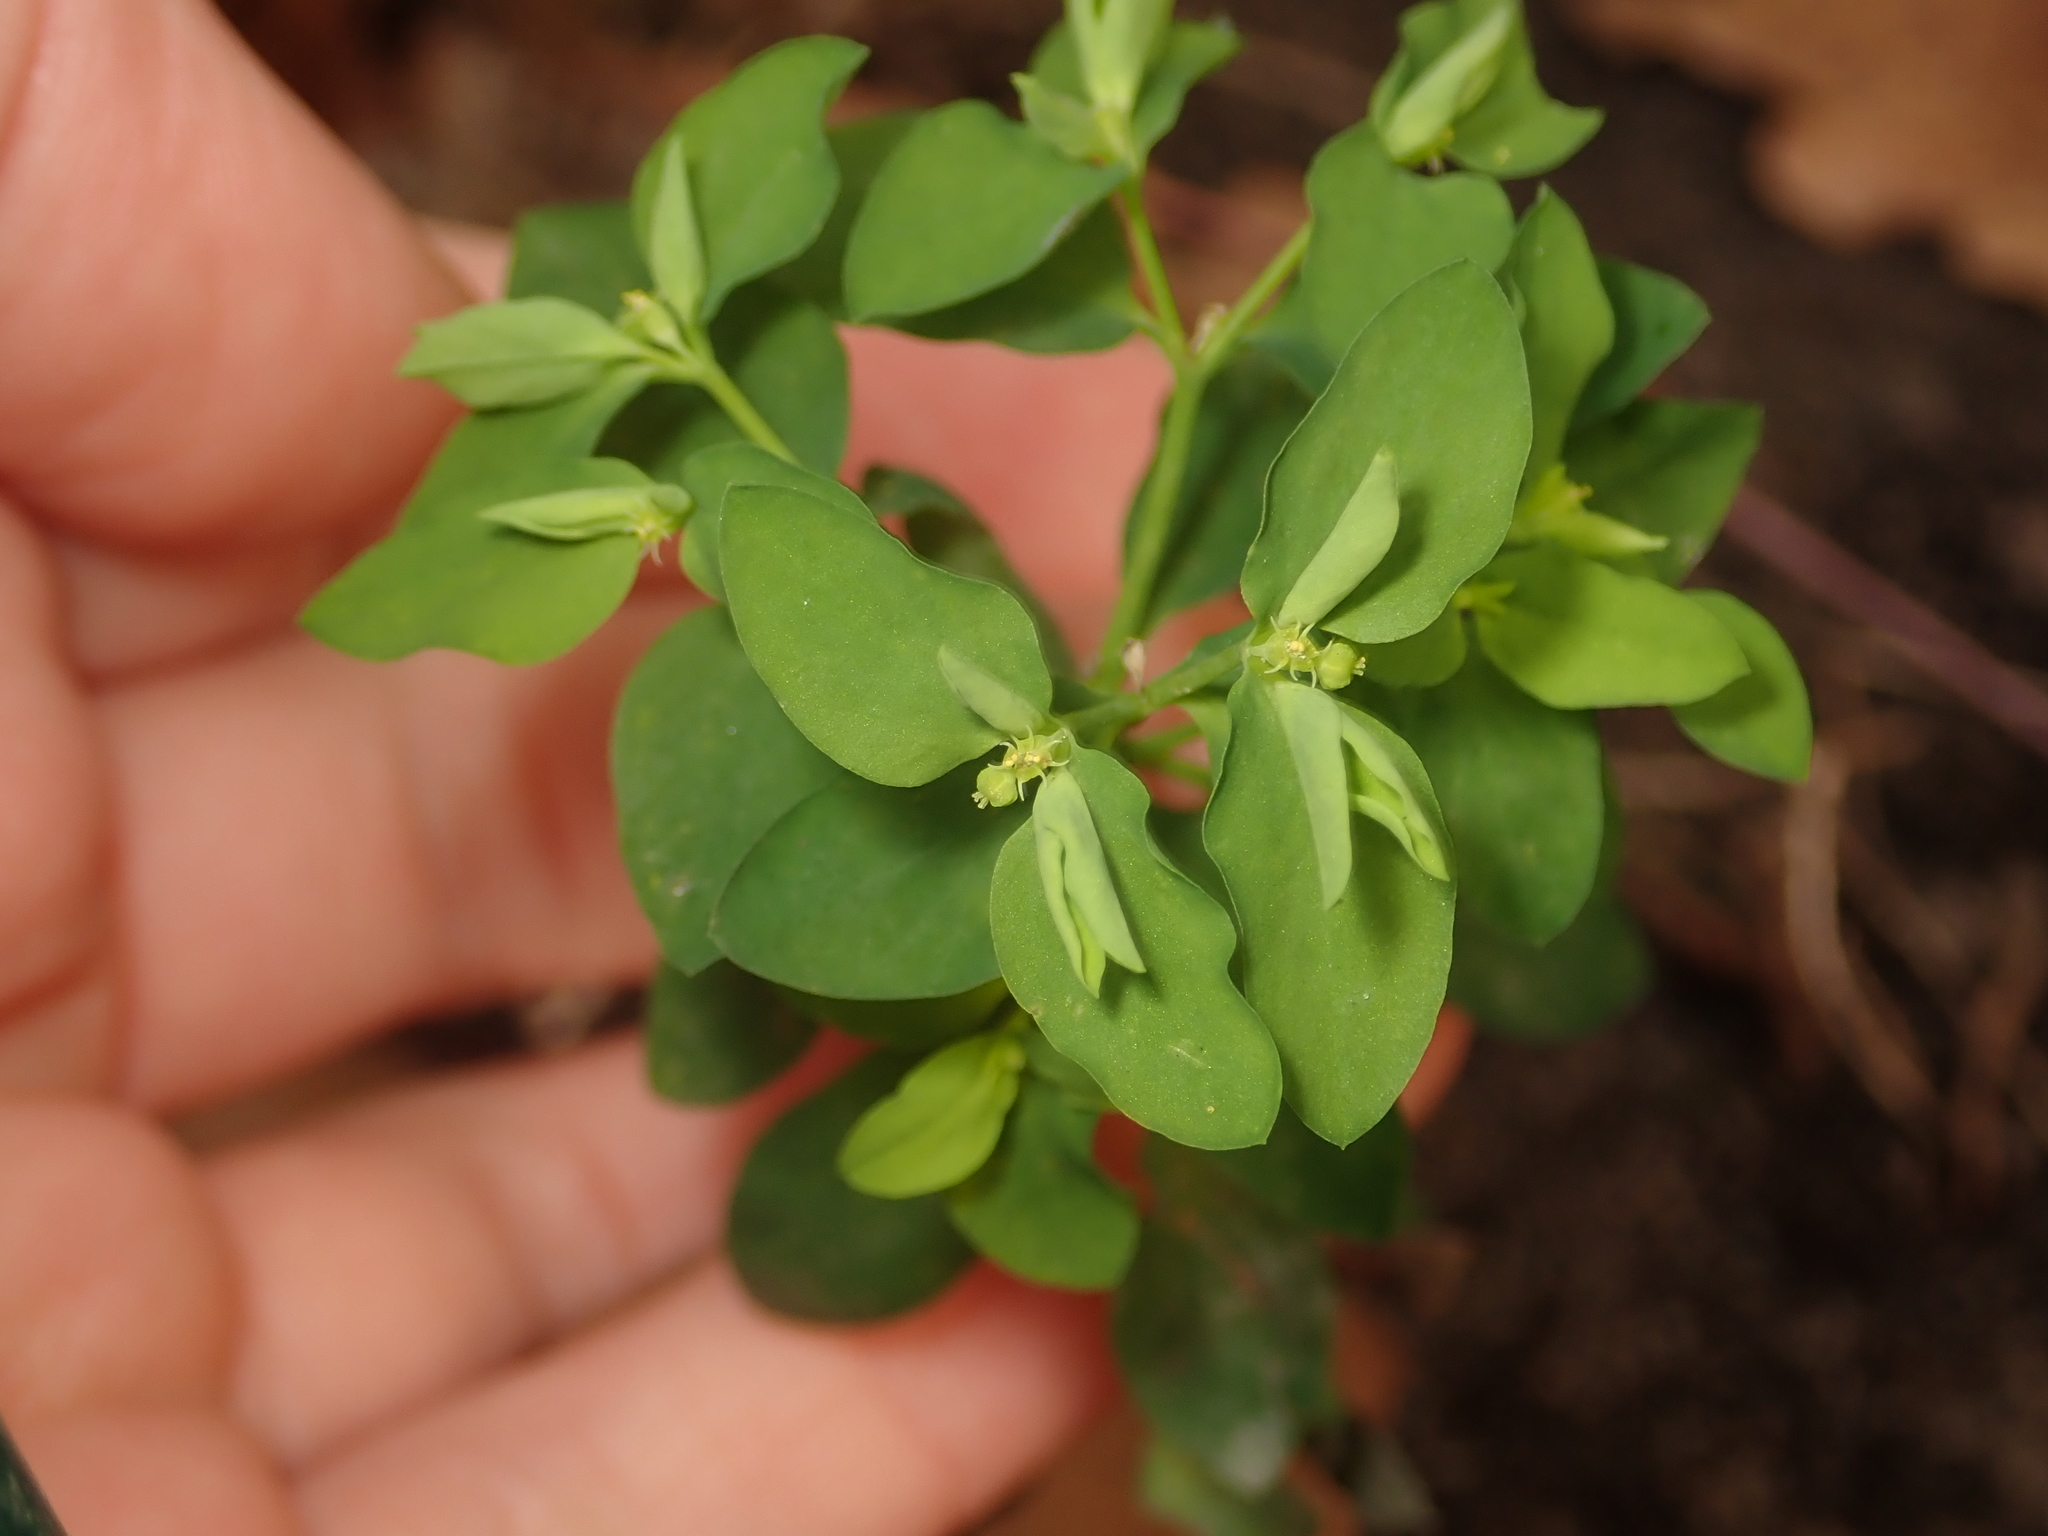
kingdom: Plantae
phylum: Tracheophyta
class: Magnoliopsida
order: Malpighiales
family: Euphorbiaceae
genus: Euphorbia
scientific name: Euphorbia peplus
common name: Petty spurge
